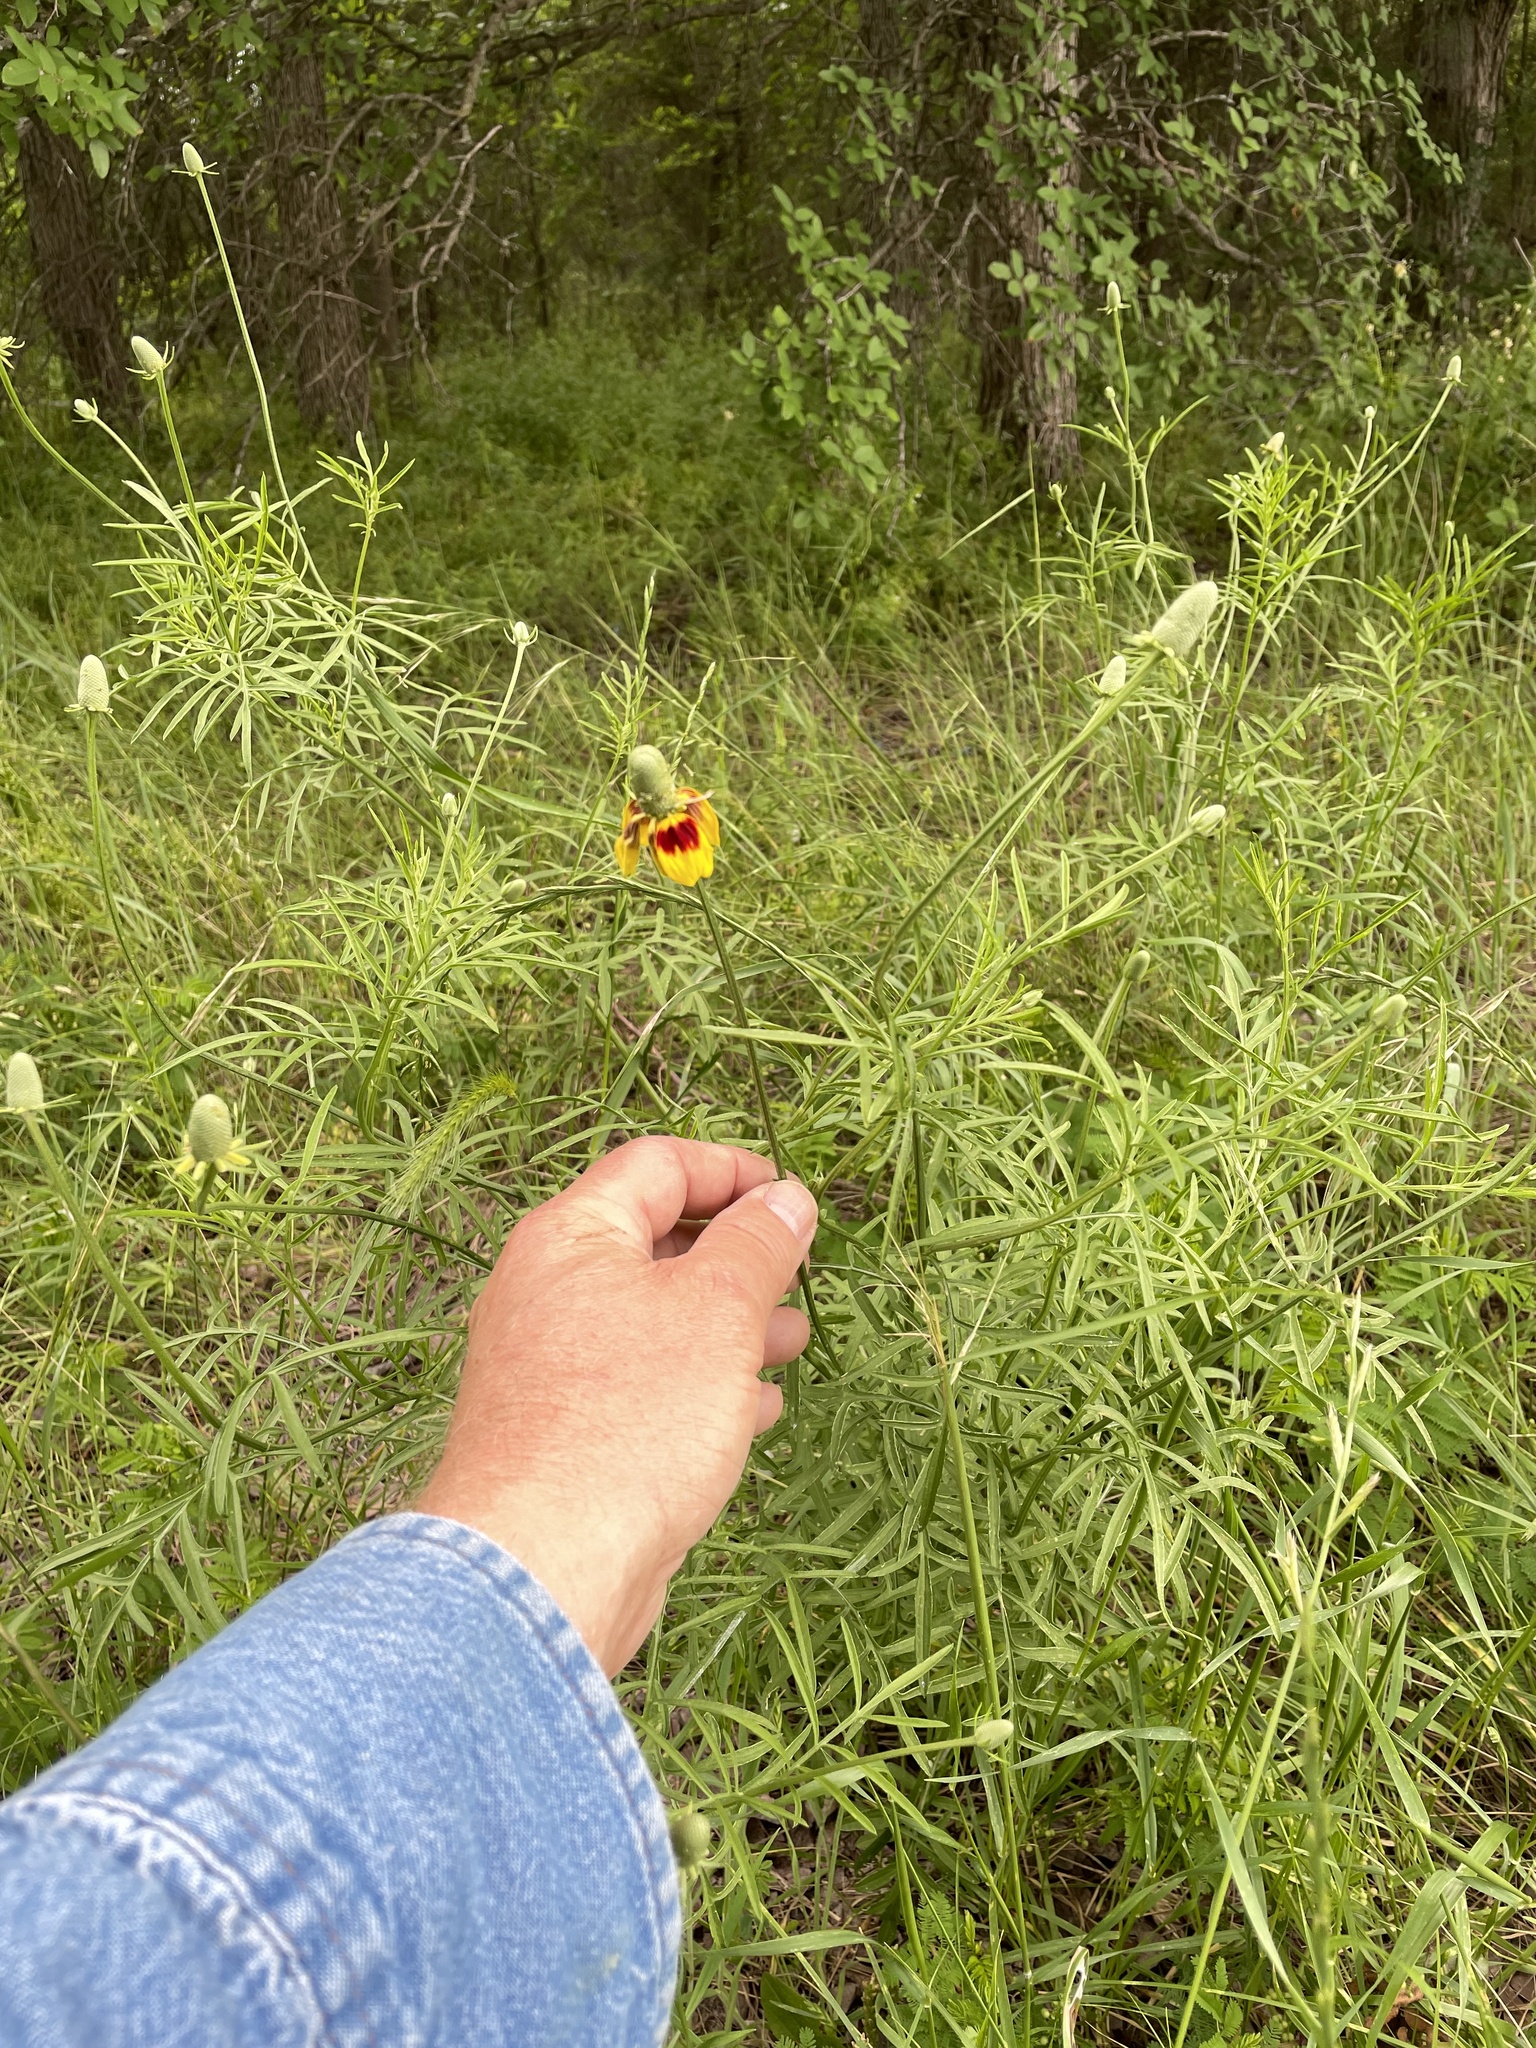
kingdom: Plantae
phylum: Tracheophyta
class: Magnoliopsida
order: Asterales
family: Asteraceae
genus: Ratibida
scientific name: Ratibida columnifera
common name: Prairie coneflower
